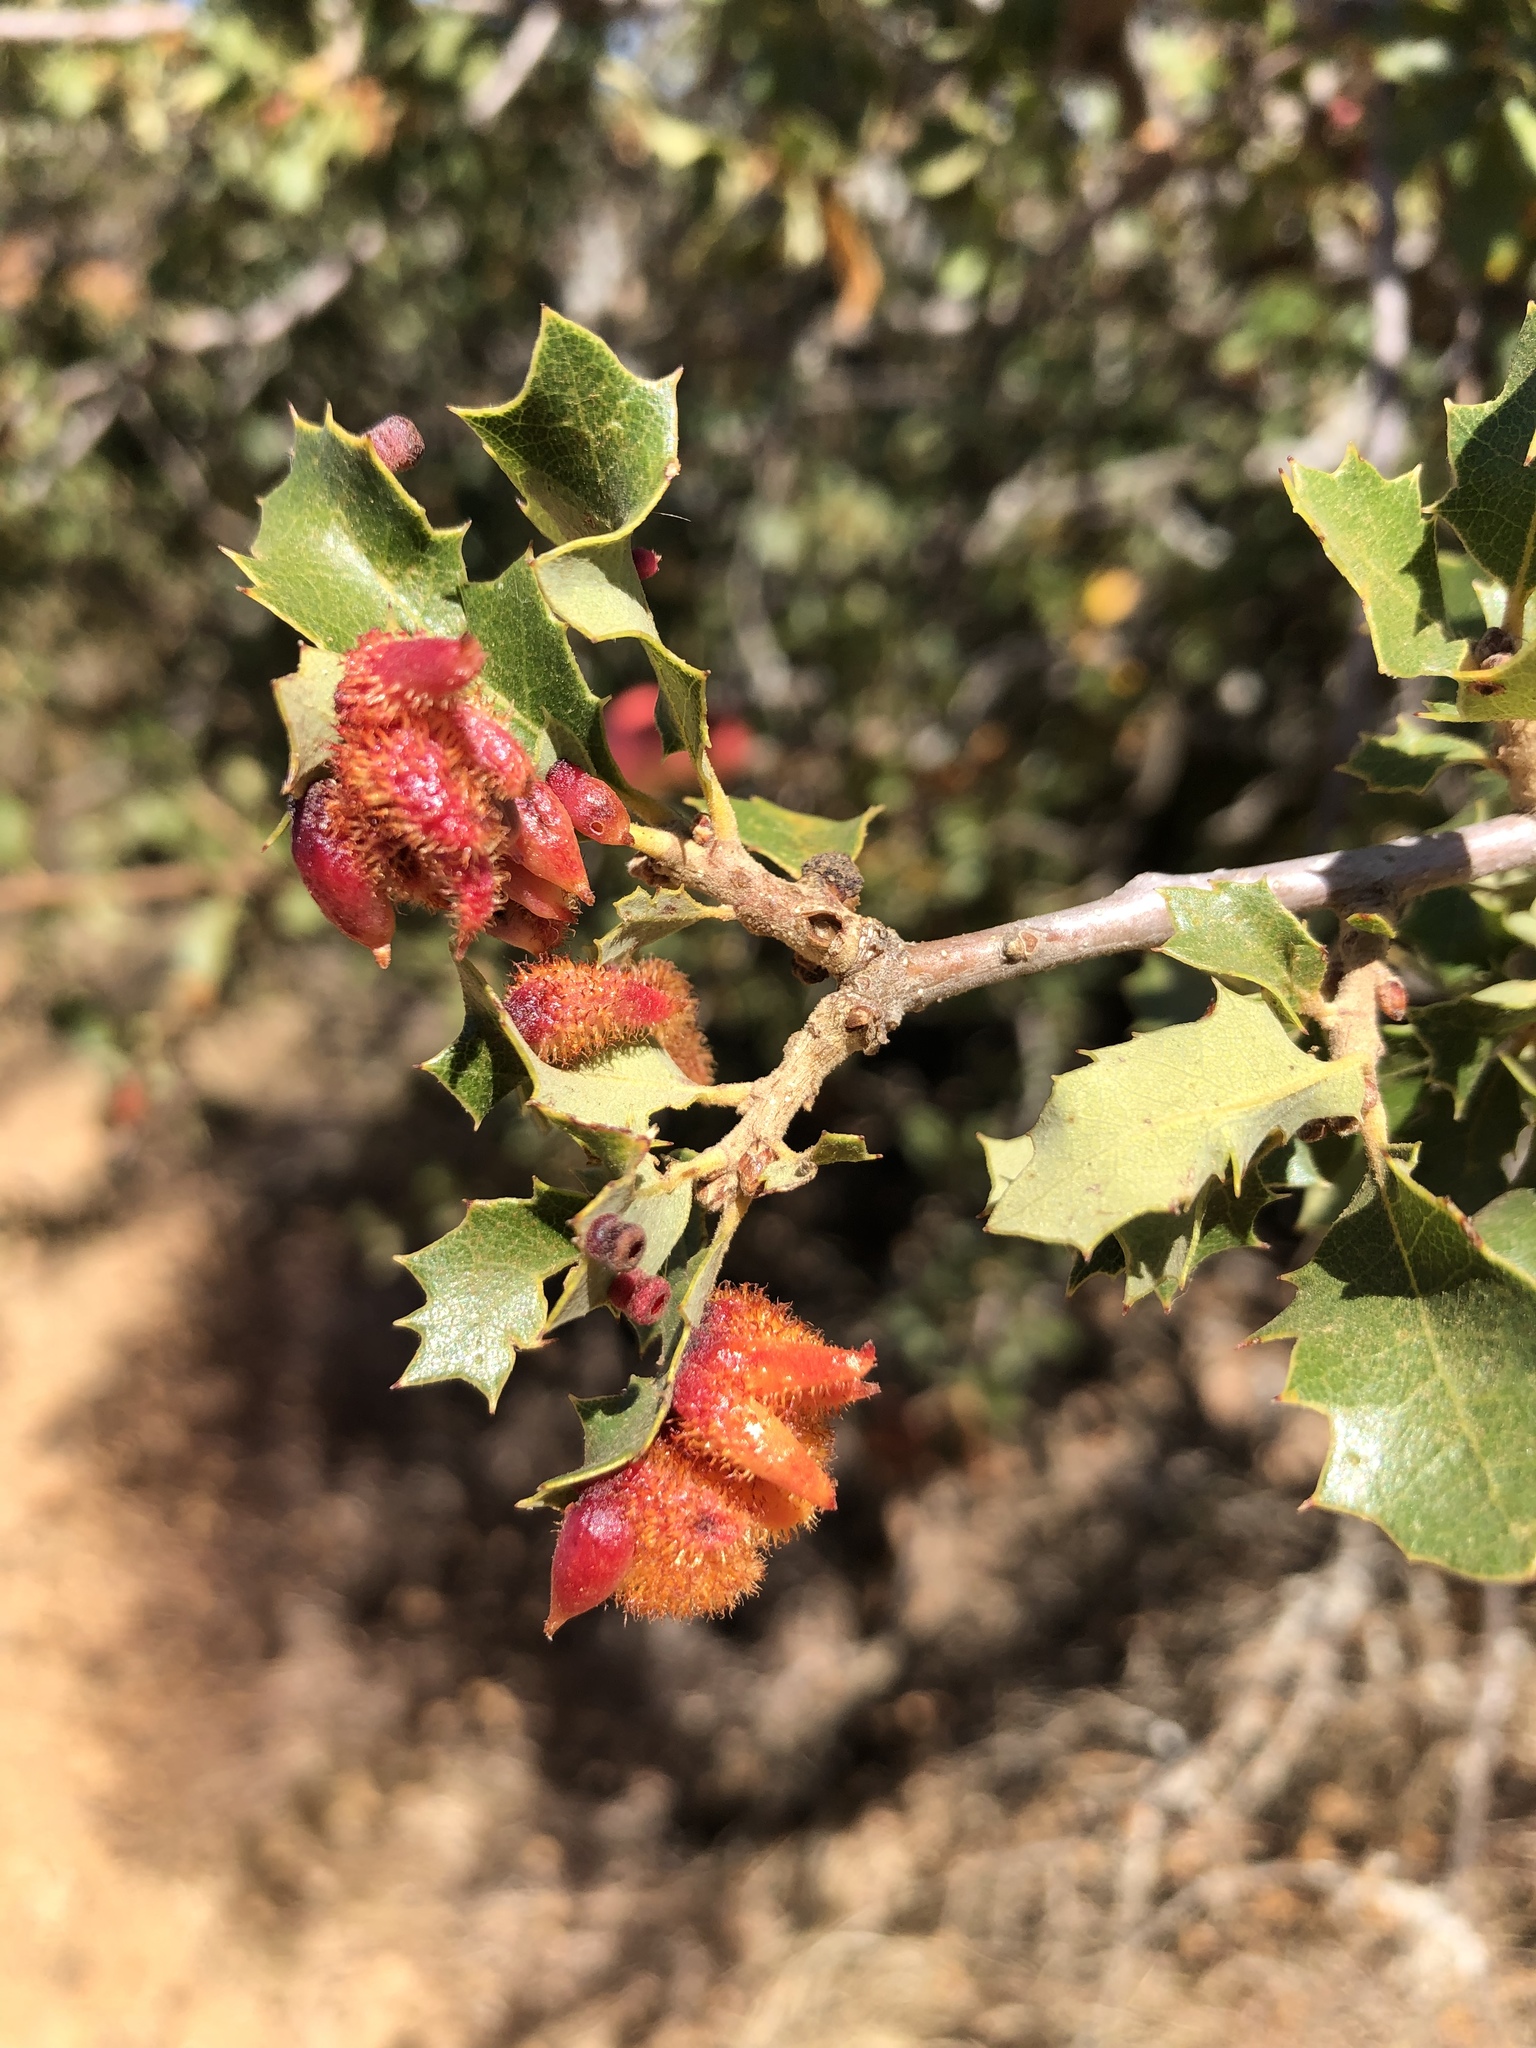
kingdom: Animalia
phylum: Arthropoda
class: Insecta
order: Hymenoptera
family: Cynipidae
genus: Andricus
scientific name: Andricus
